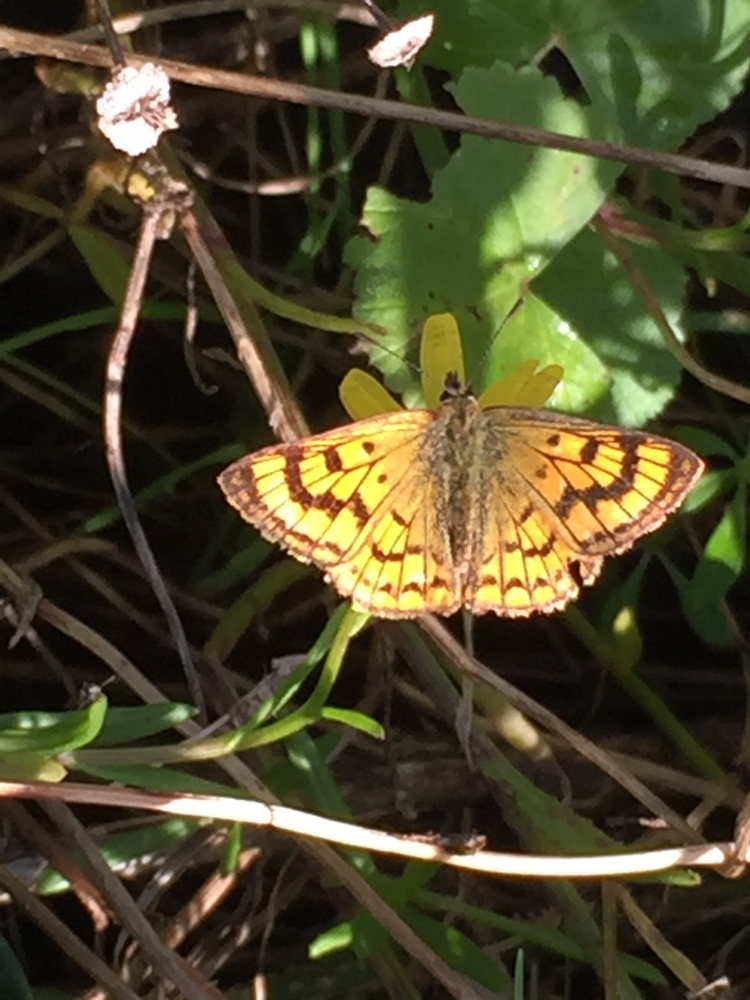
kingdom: Animalia
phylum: Arthropoda
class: Insecta
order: Lepidoptera
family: Lycaenidae
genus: Lycaena
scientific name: Lycaena salustius
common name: North island coastal copper
